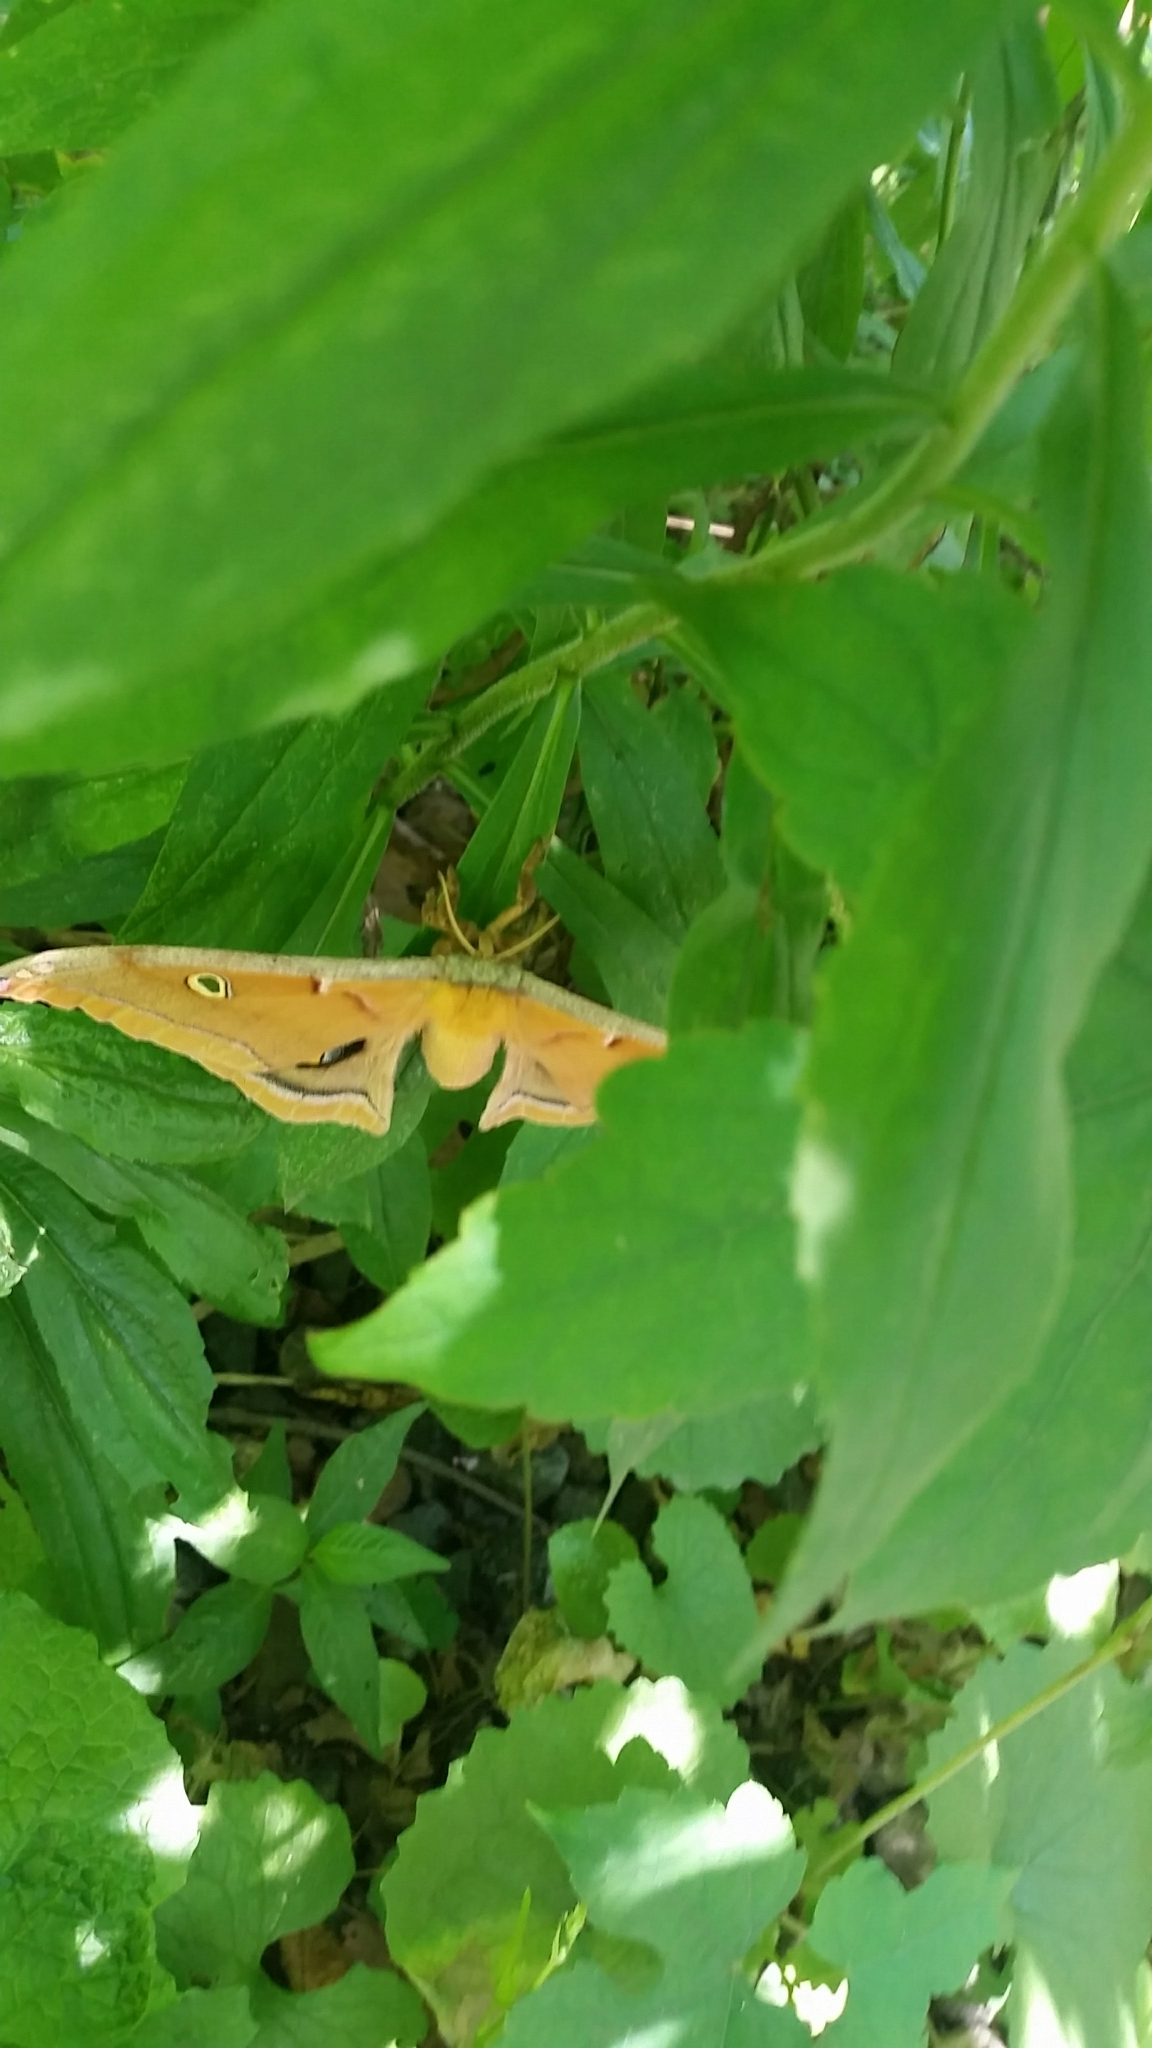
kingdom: Animalia
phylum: Arthropoda
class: Insecta
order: Lepidoptera
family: Saturniidae
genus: Antheraea
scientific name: Antheraea polyphemus
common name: Polyphemus moth
